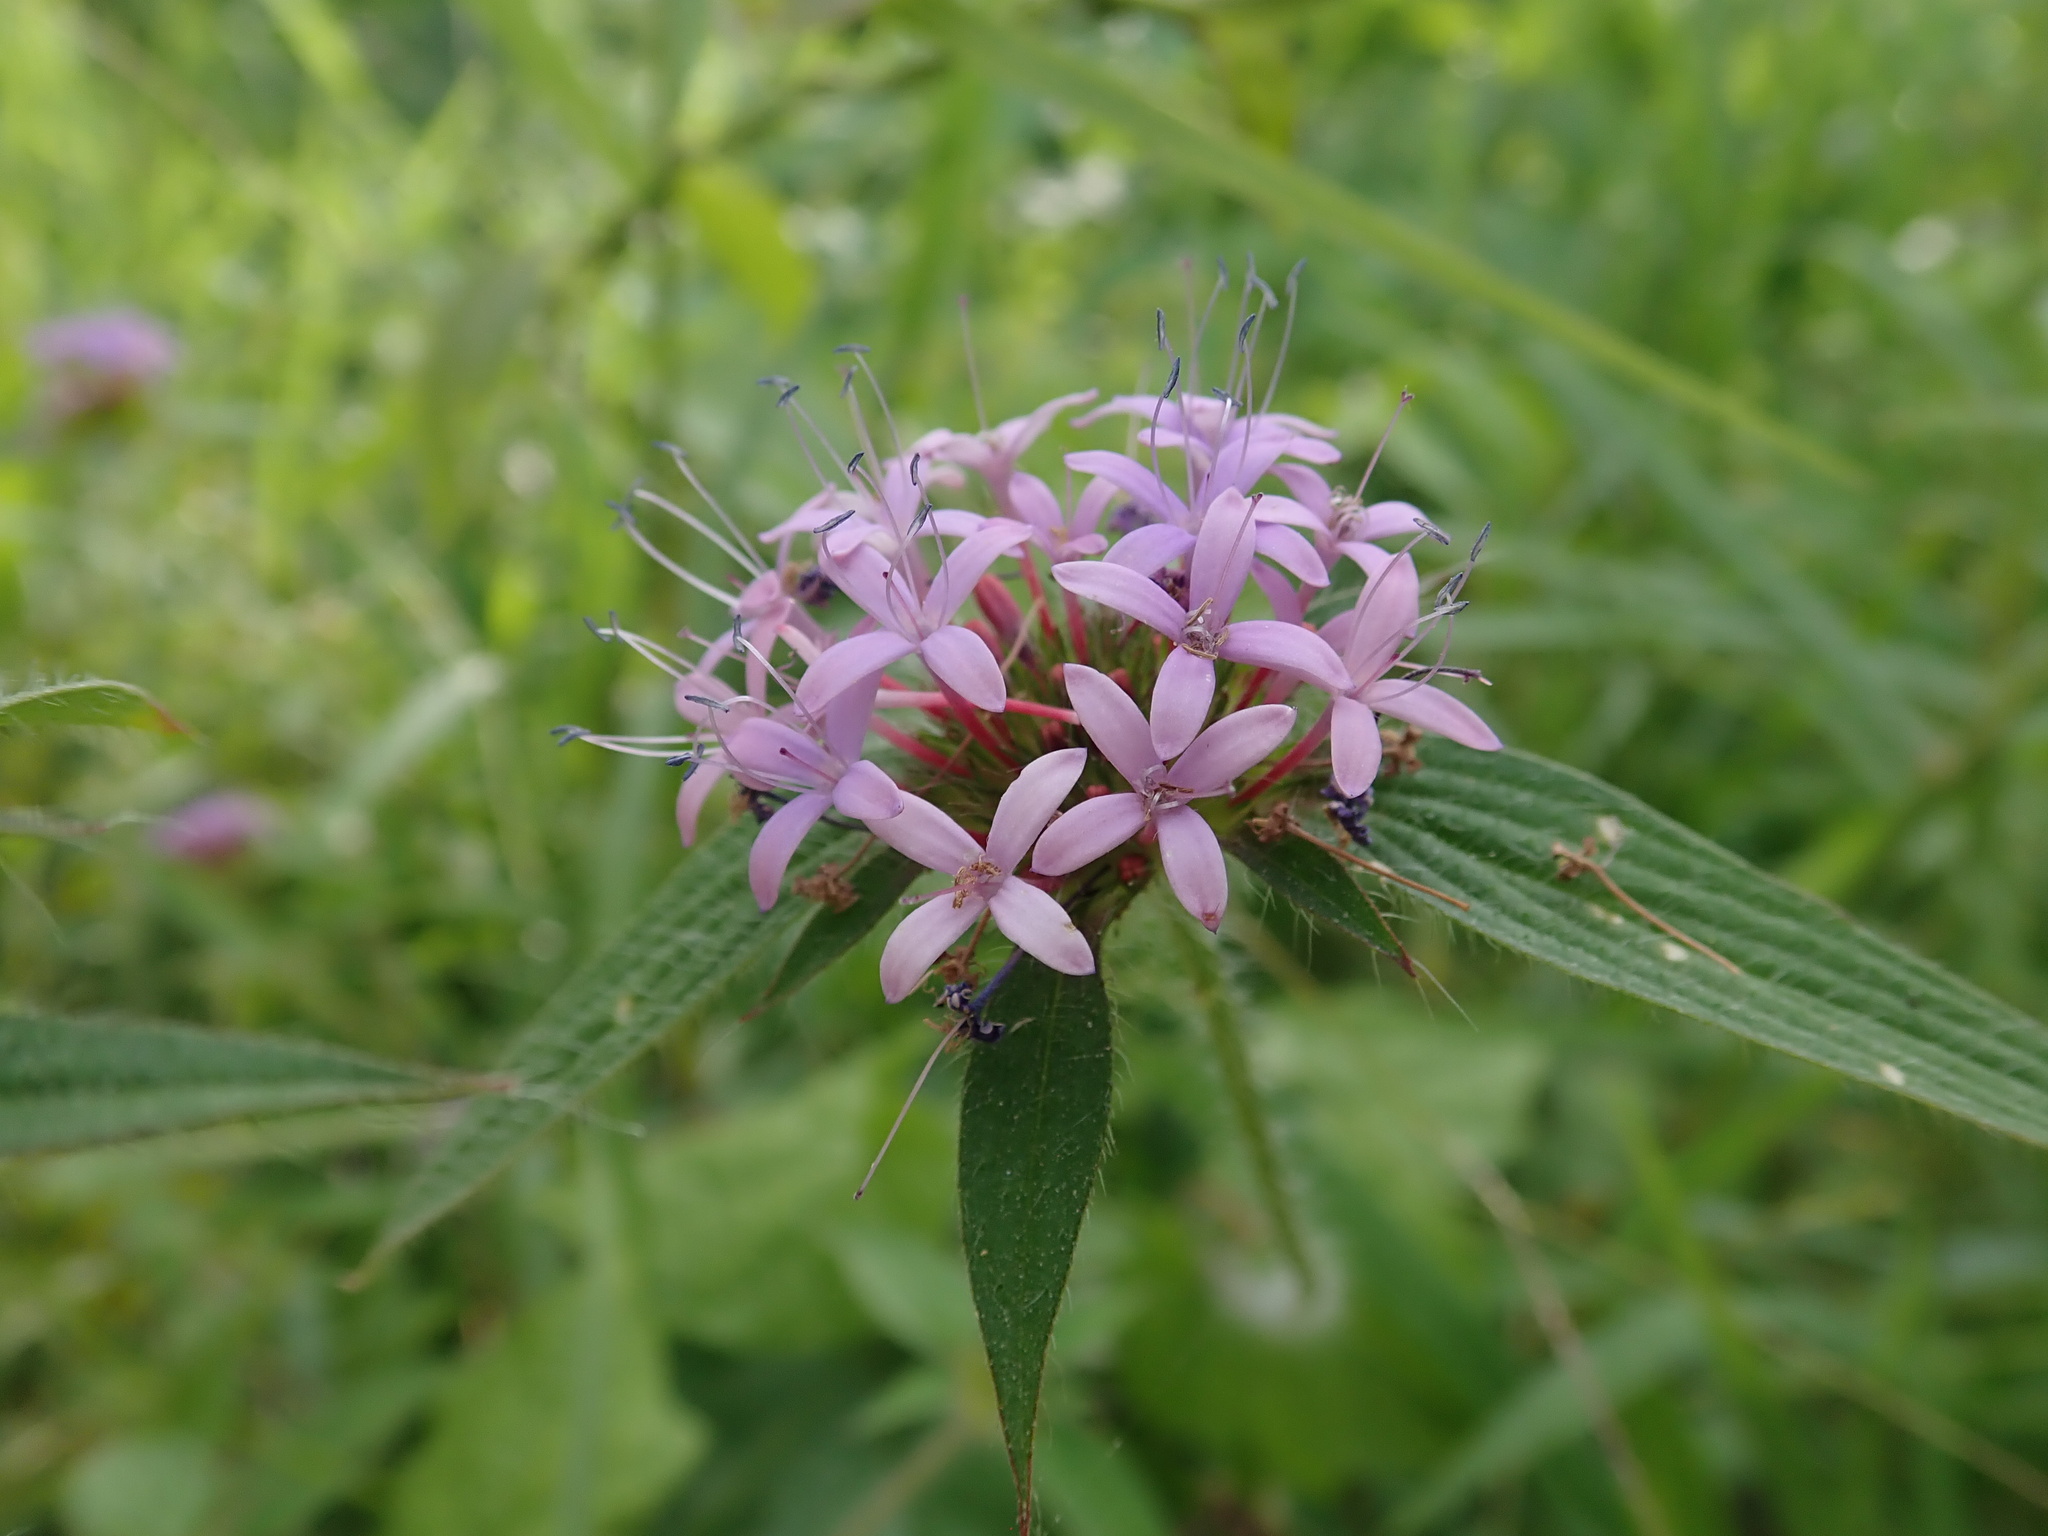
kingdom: Plantae
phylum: Tracheophyta
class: Magnoliopsida
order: Gentianales
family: Rubiaceae
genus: Crusea
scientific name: Crusea hispida
